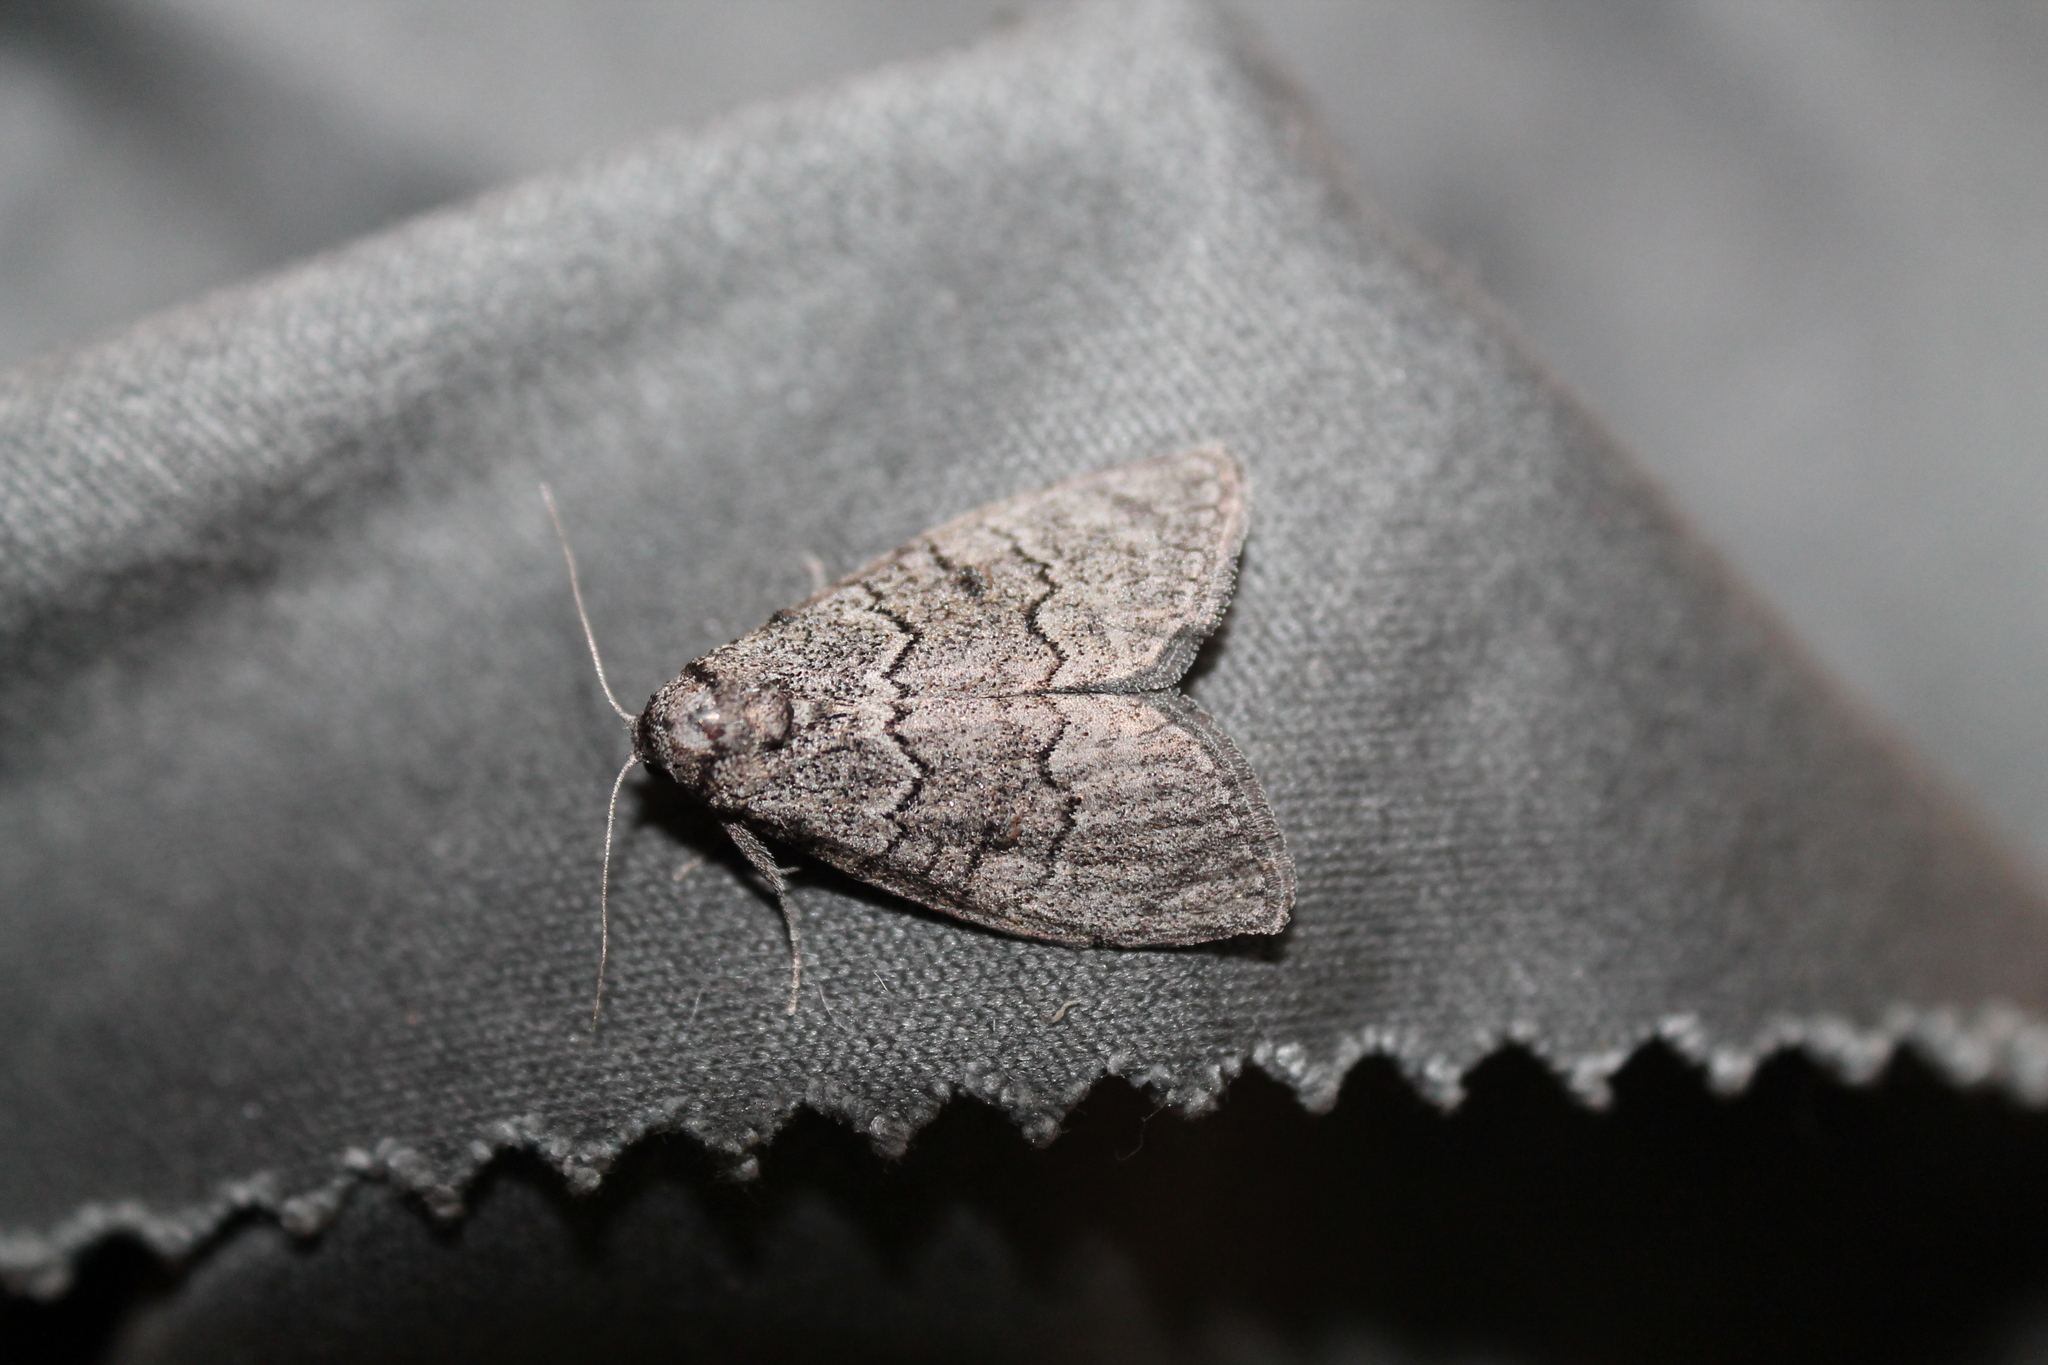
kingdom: Animalia
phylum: Arthropoda
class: Insecta
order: Lepidoptera
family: Nolidae
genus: Uraba
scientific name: Uraba lugens
